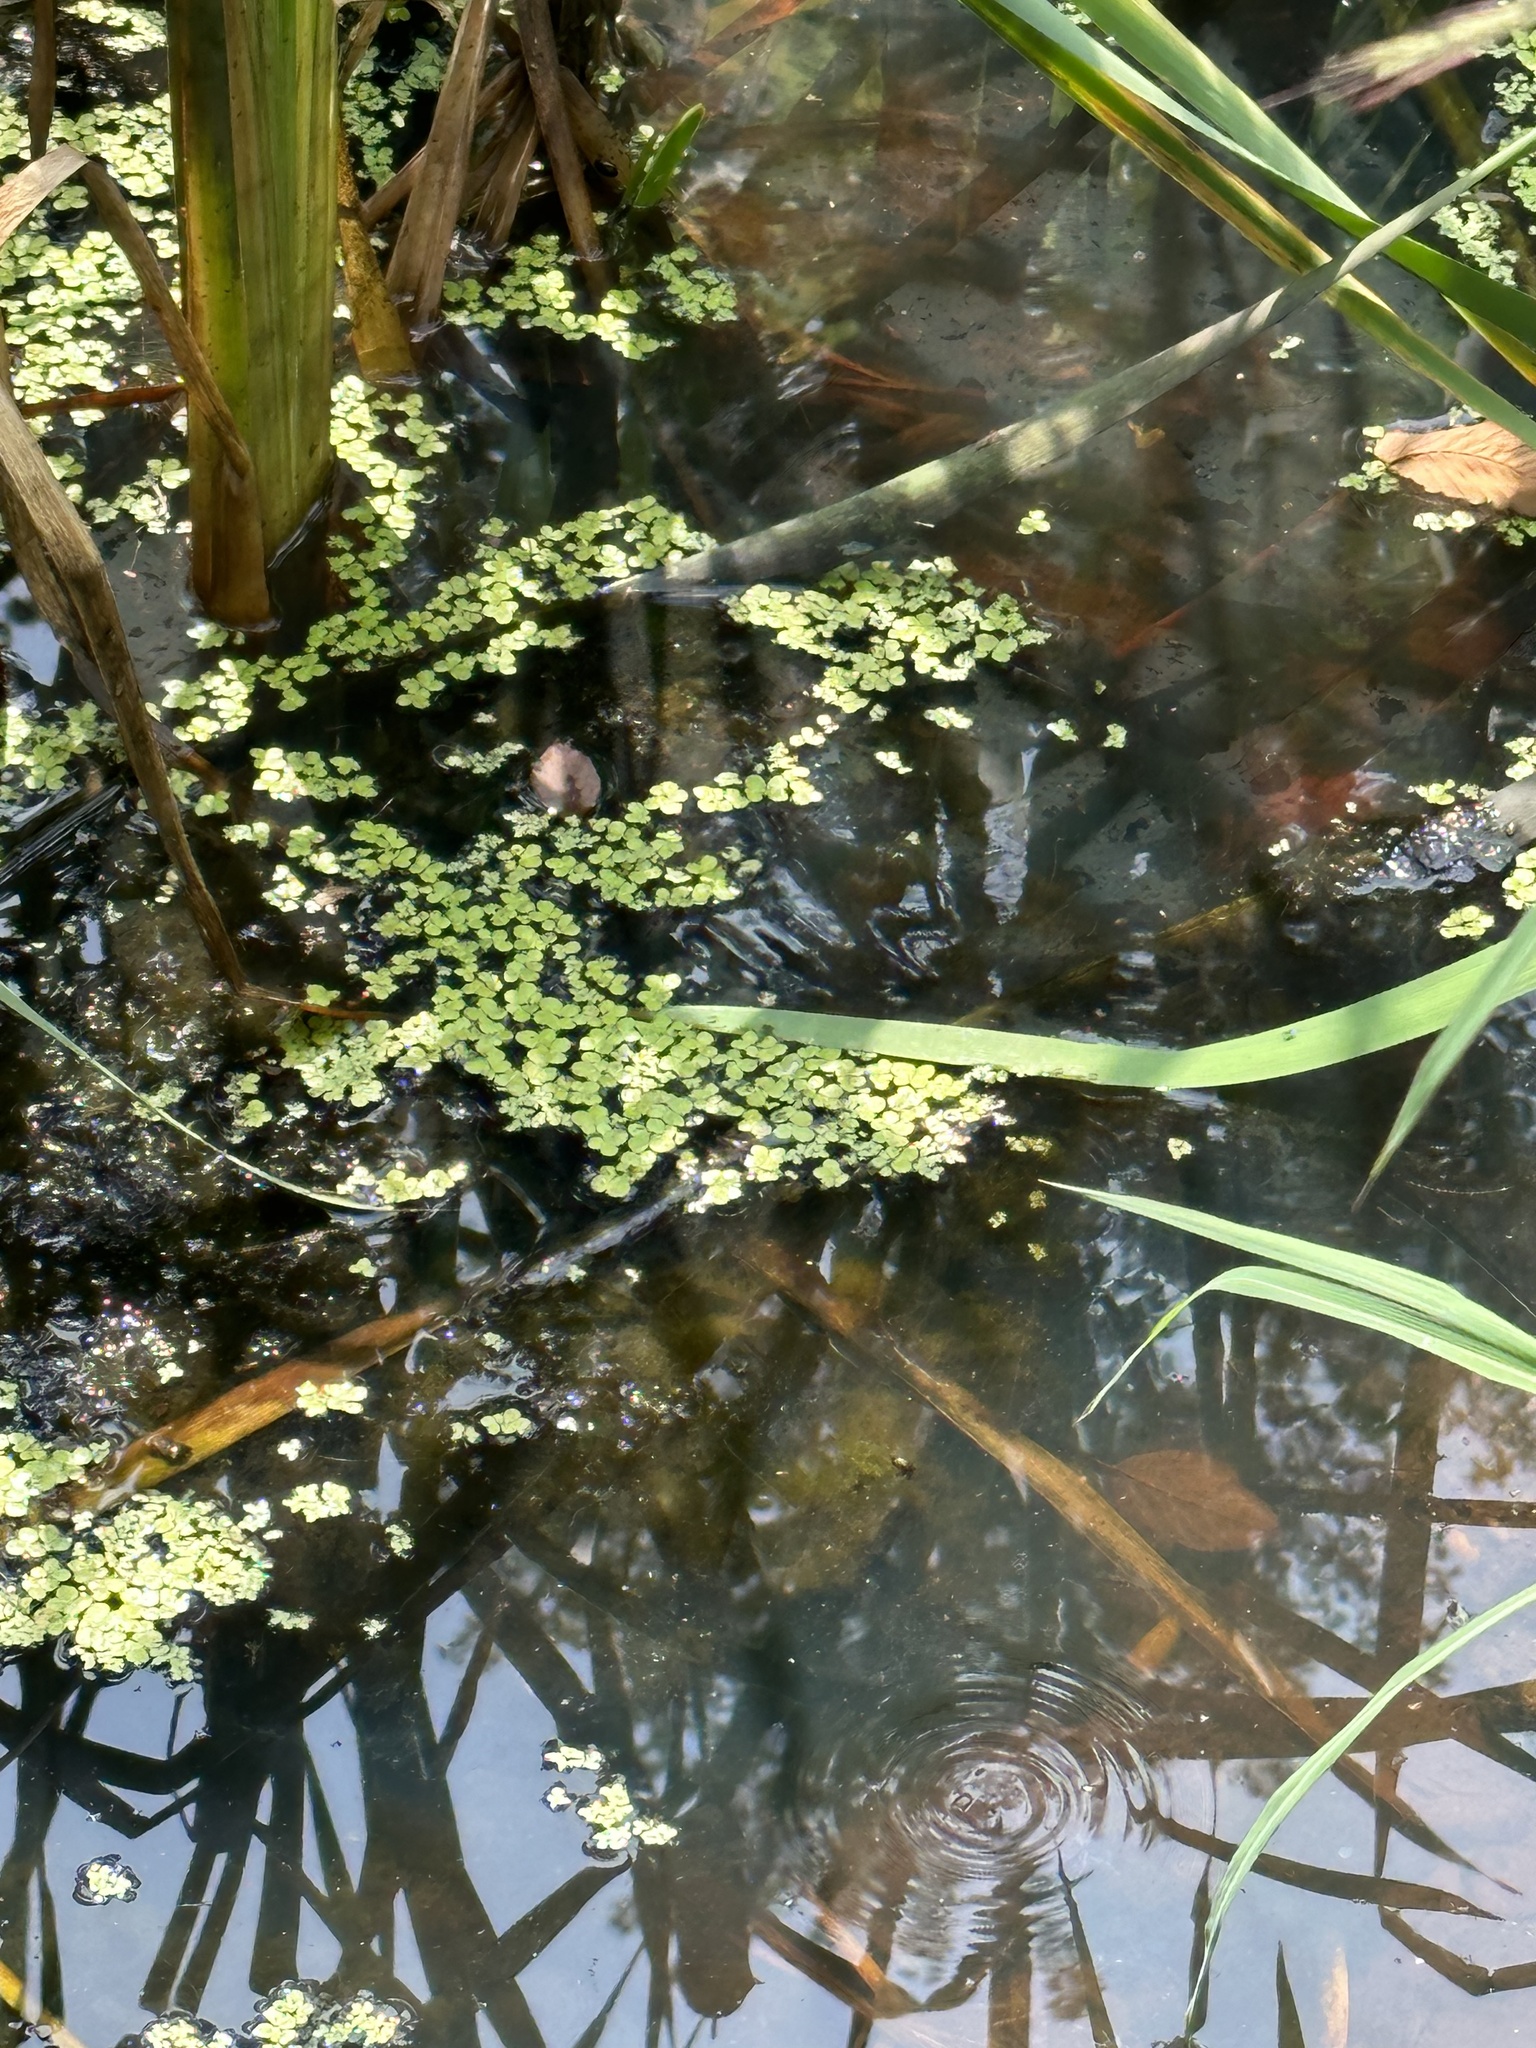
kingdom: Plantae
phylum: Tracheophyta
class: Liliopsida
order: Alismatales
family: Araceae
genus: Lemna
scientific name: Lemna minor
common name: Common duckweed
